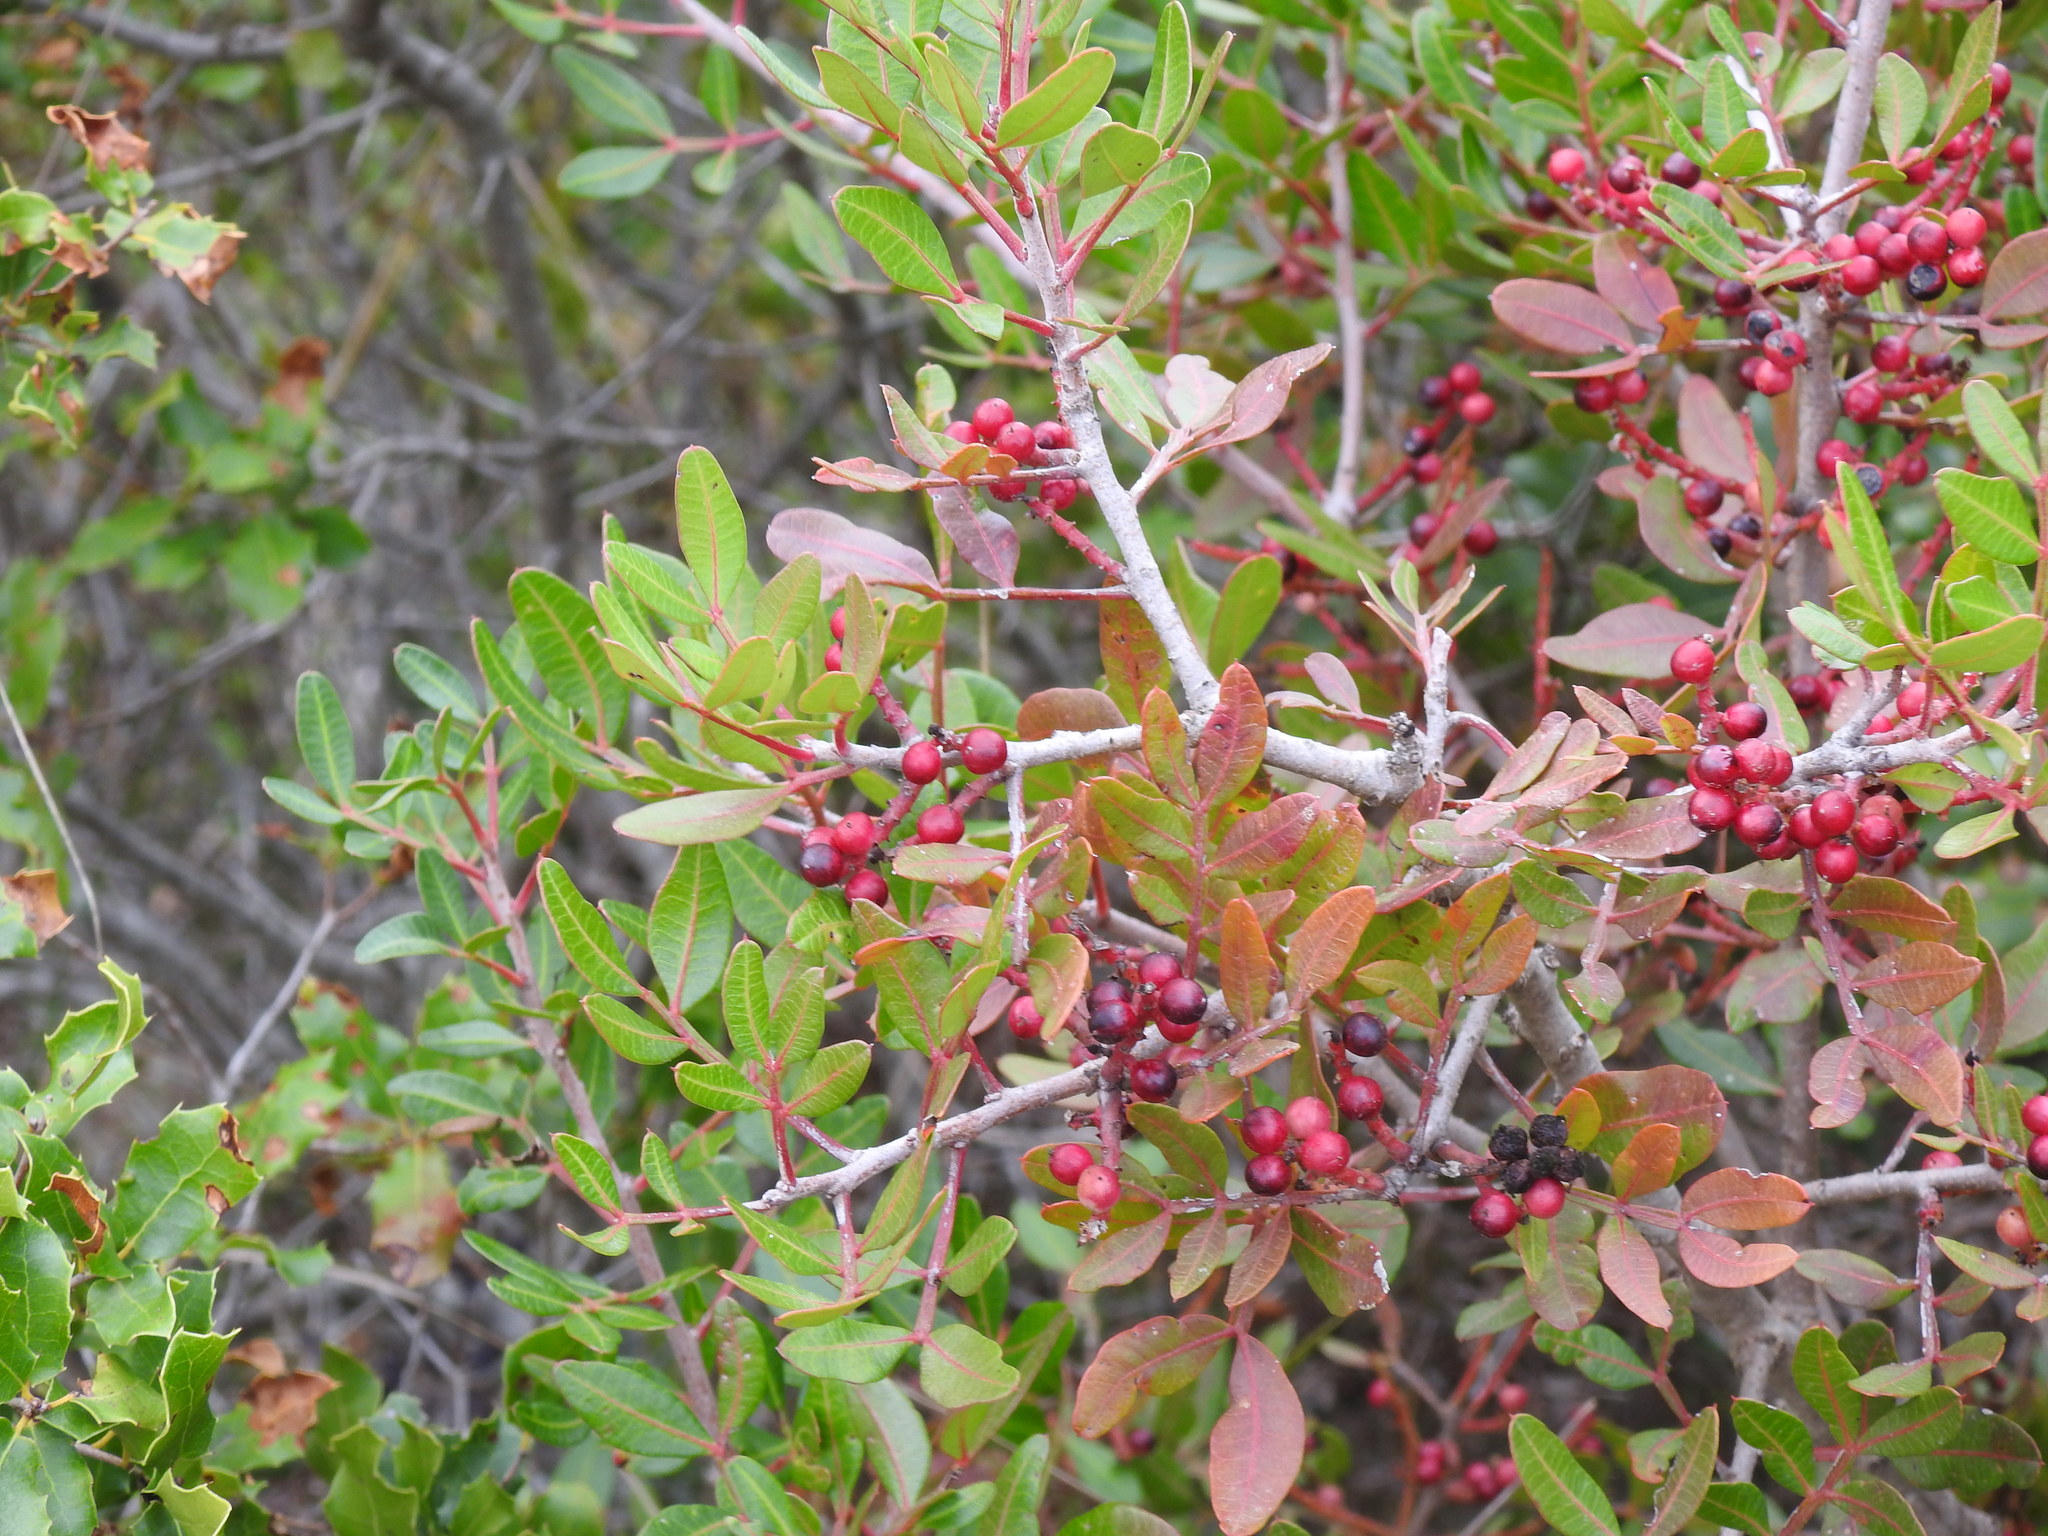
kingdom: Plantae
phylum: Tracheophyta
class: Magnoliopsida
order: Sapindales
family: Anacardiaceae
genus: Pistacia
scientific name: Pistacia lentiscus
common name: Lentisk
